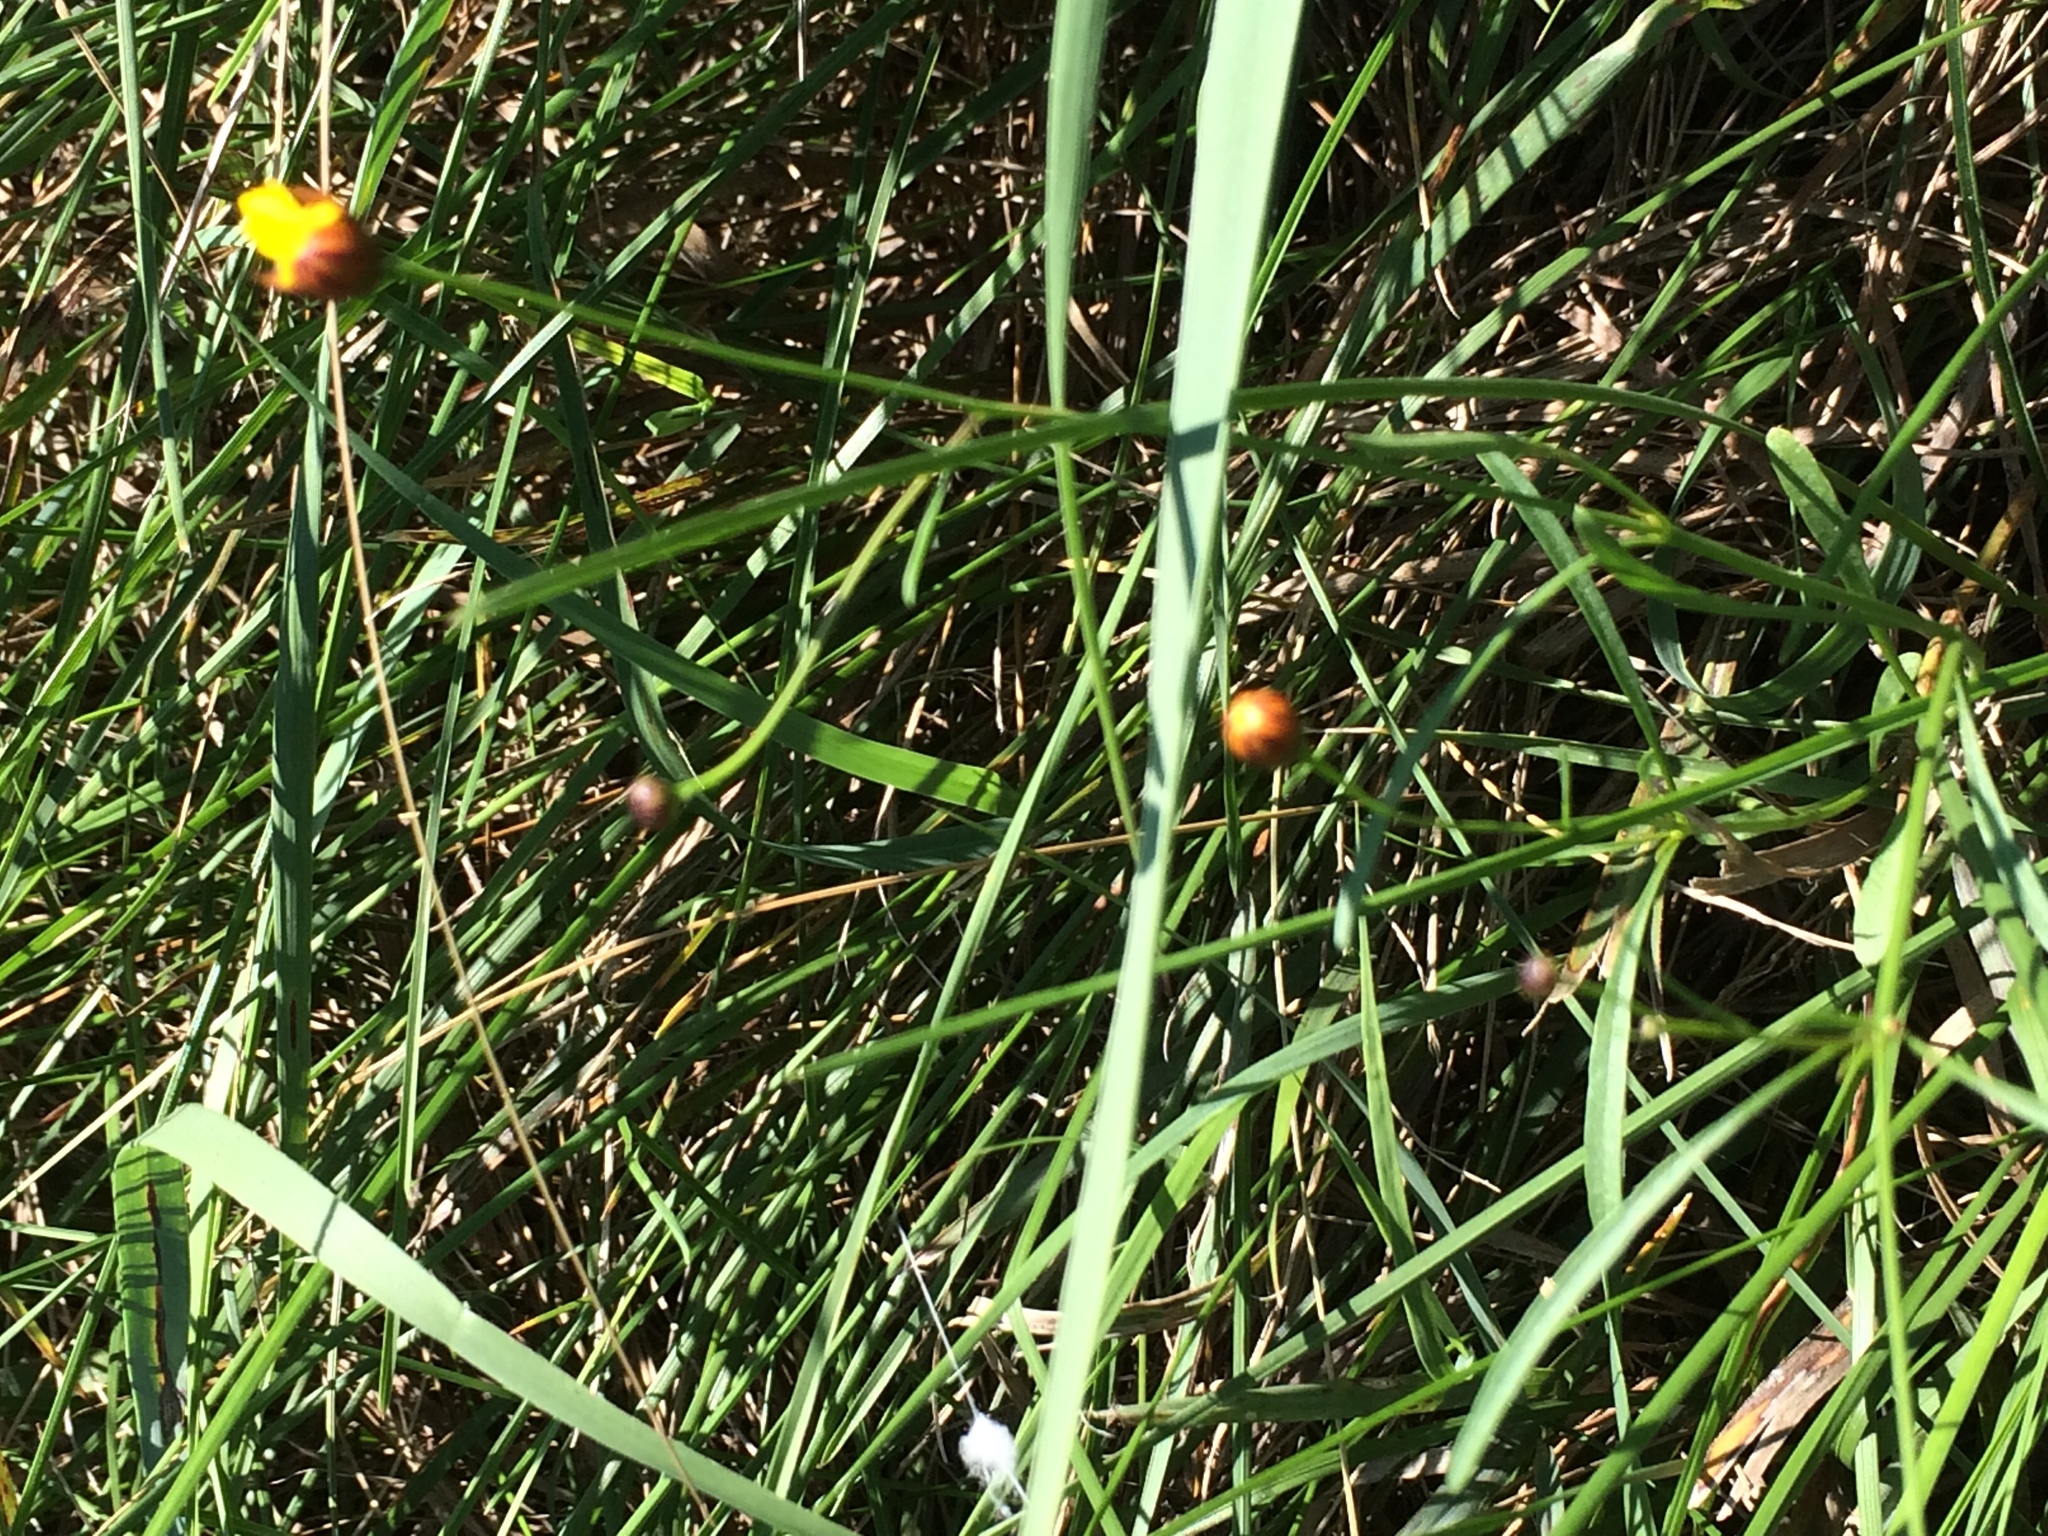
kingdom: Plantae
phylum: Tracheophyta
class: Magnoliopsida
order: Asterales
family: Asteraceae
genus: Coreopsis
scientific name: Coreopsis tinctoria
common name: Garden tickseed
